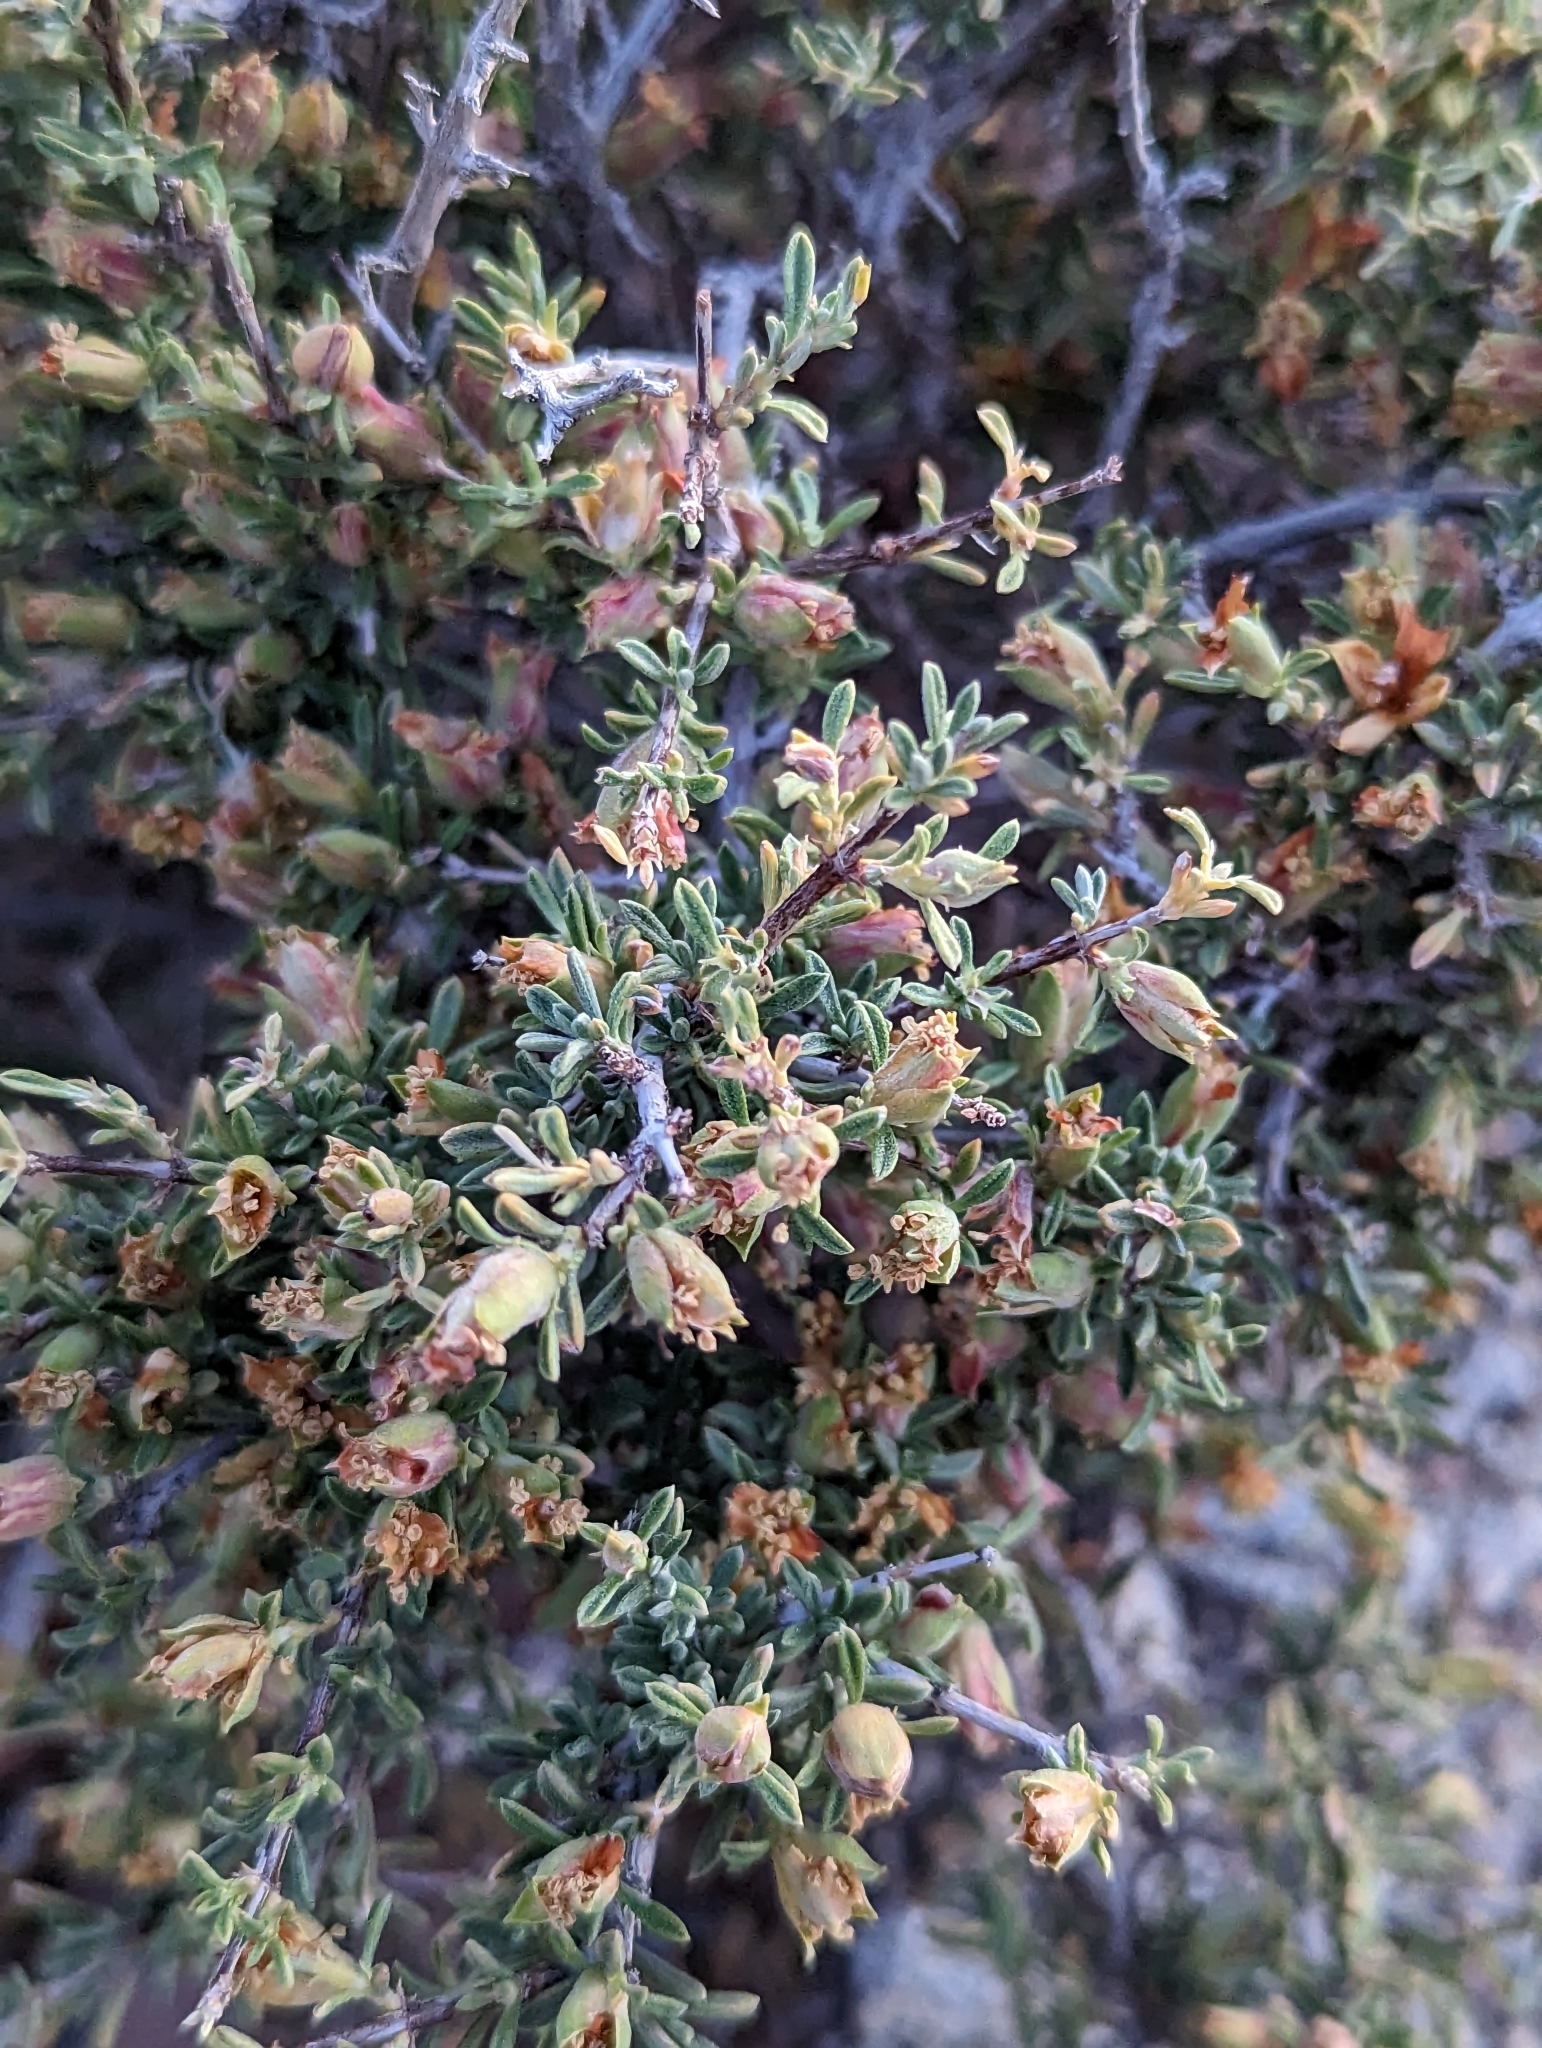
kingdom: Plantae
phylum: Tracheophyta
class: Magnoliopsida
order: Rosales
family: Rosaceae
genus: Coleogyne
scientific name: Coleogyne ramosissima
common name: Blackbrush
